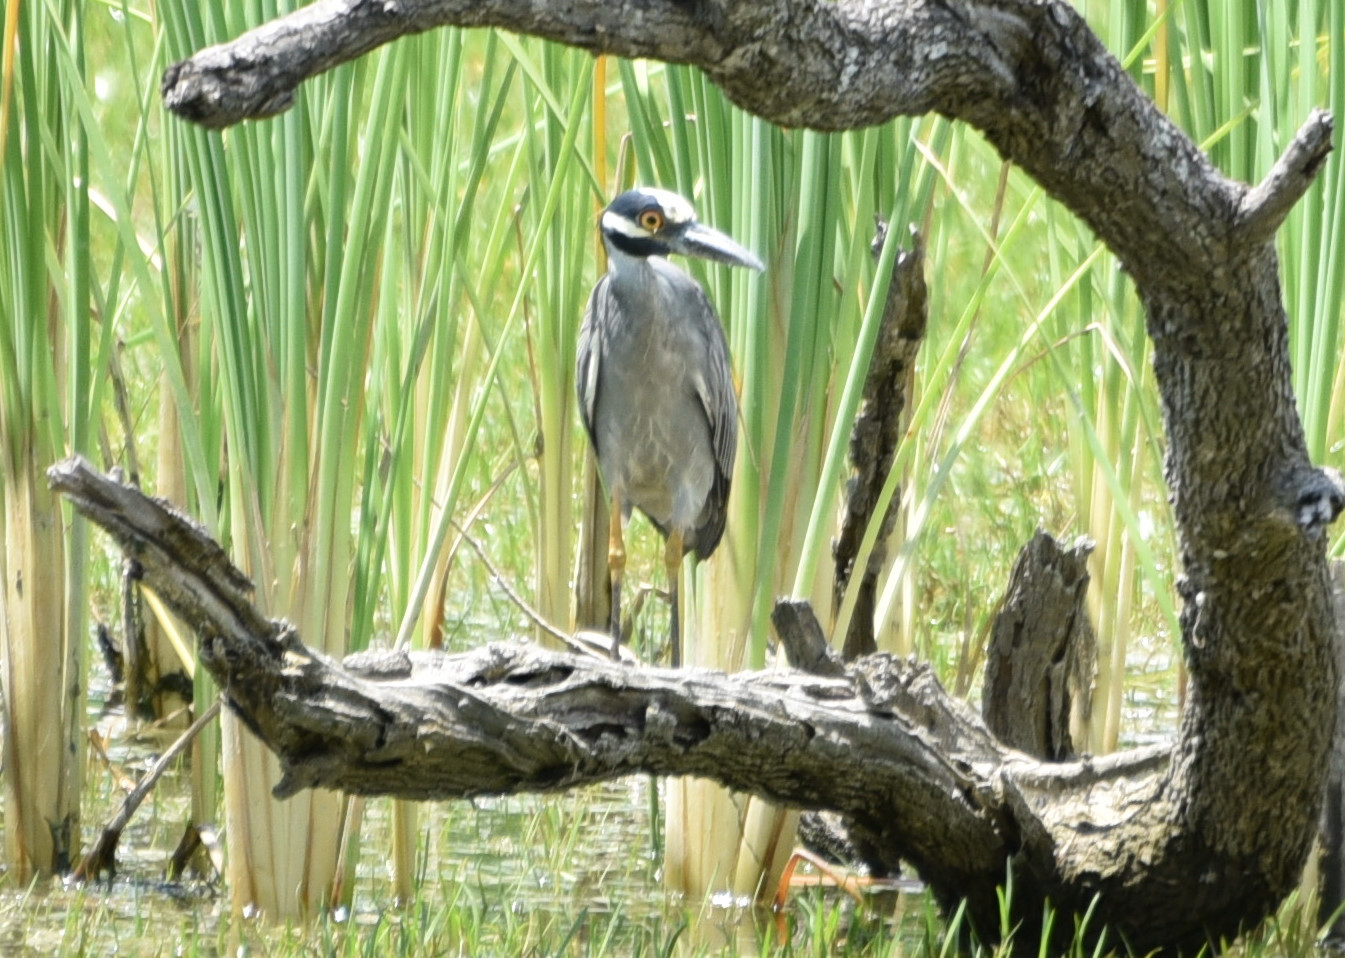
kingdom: Animalia
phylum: Chordata
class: Aves
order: Pelecaniformes
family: Ardeidae
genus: Nyctanassa
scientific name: Nyctanassa violacea
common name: Yellow-crowned night heron
